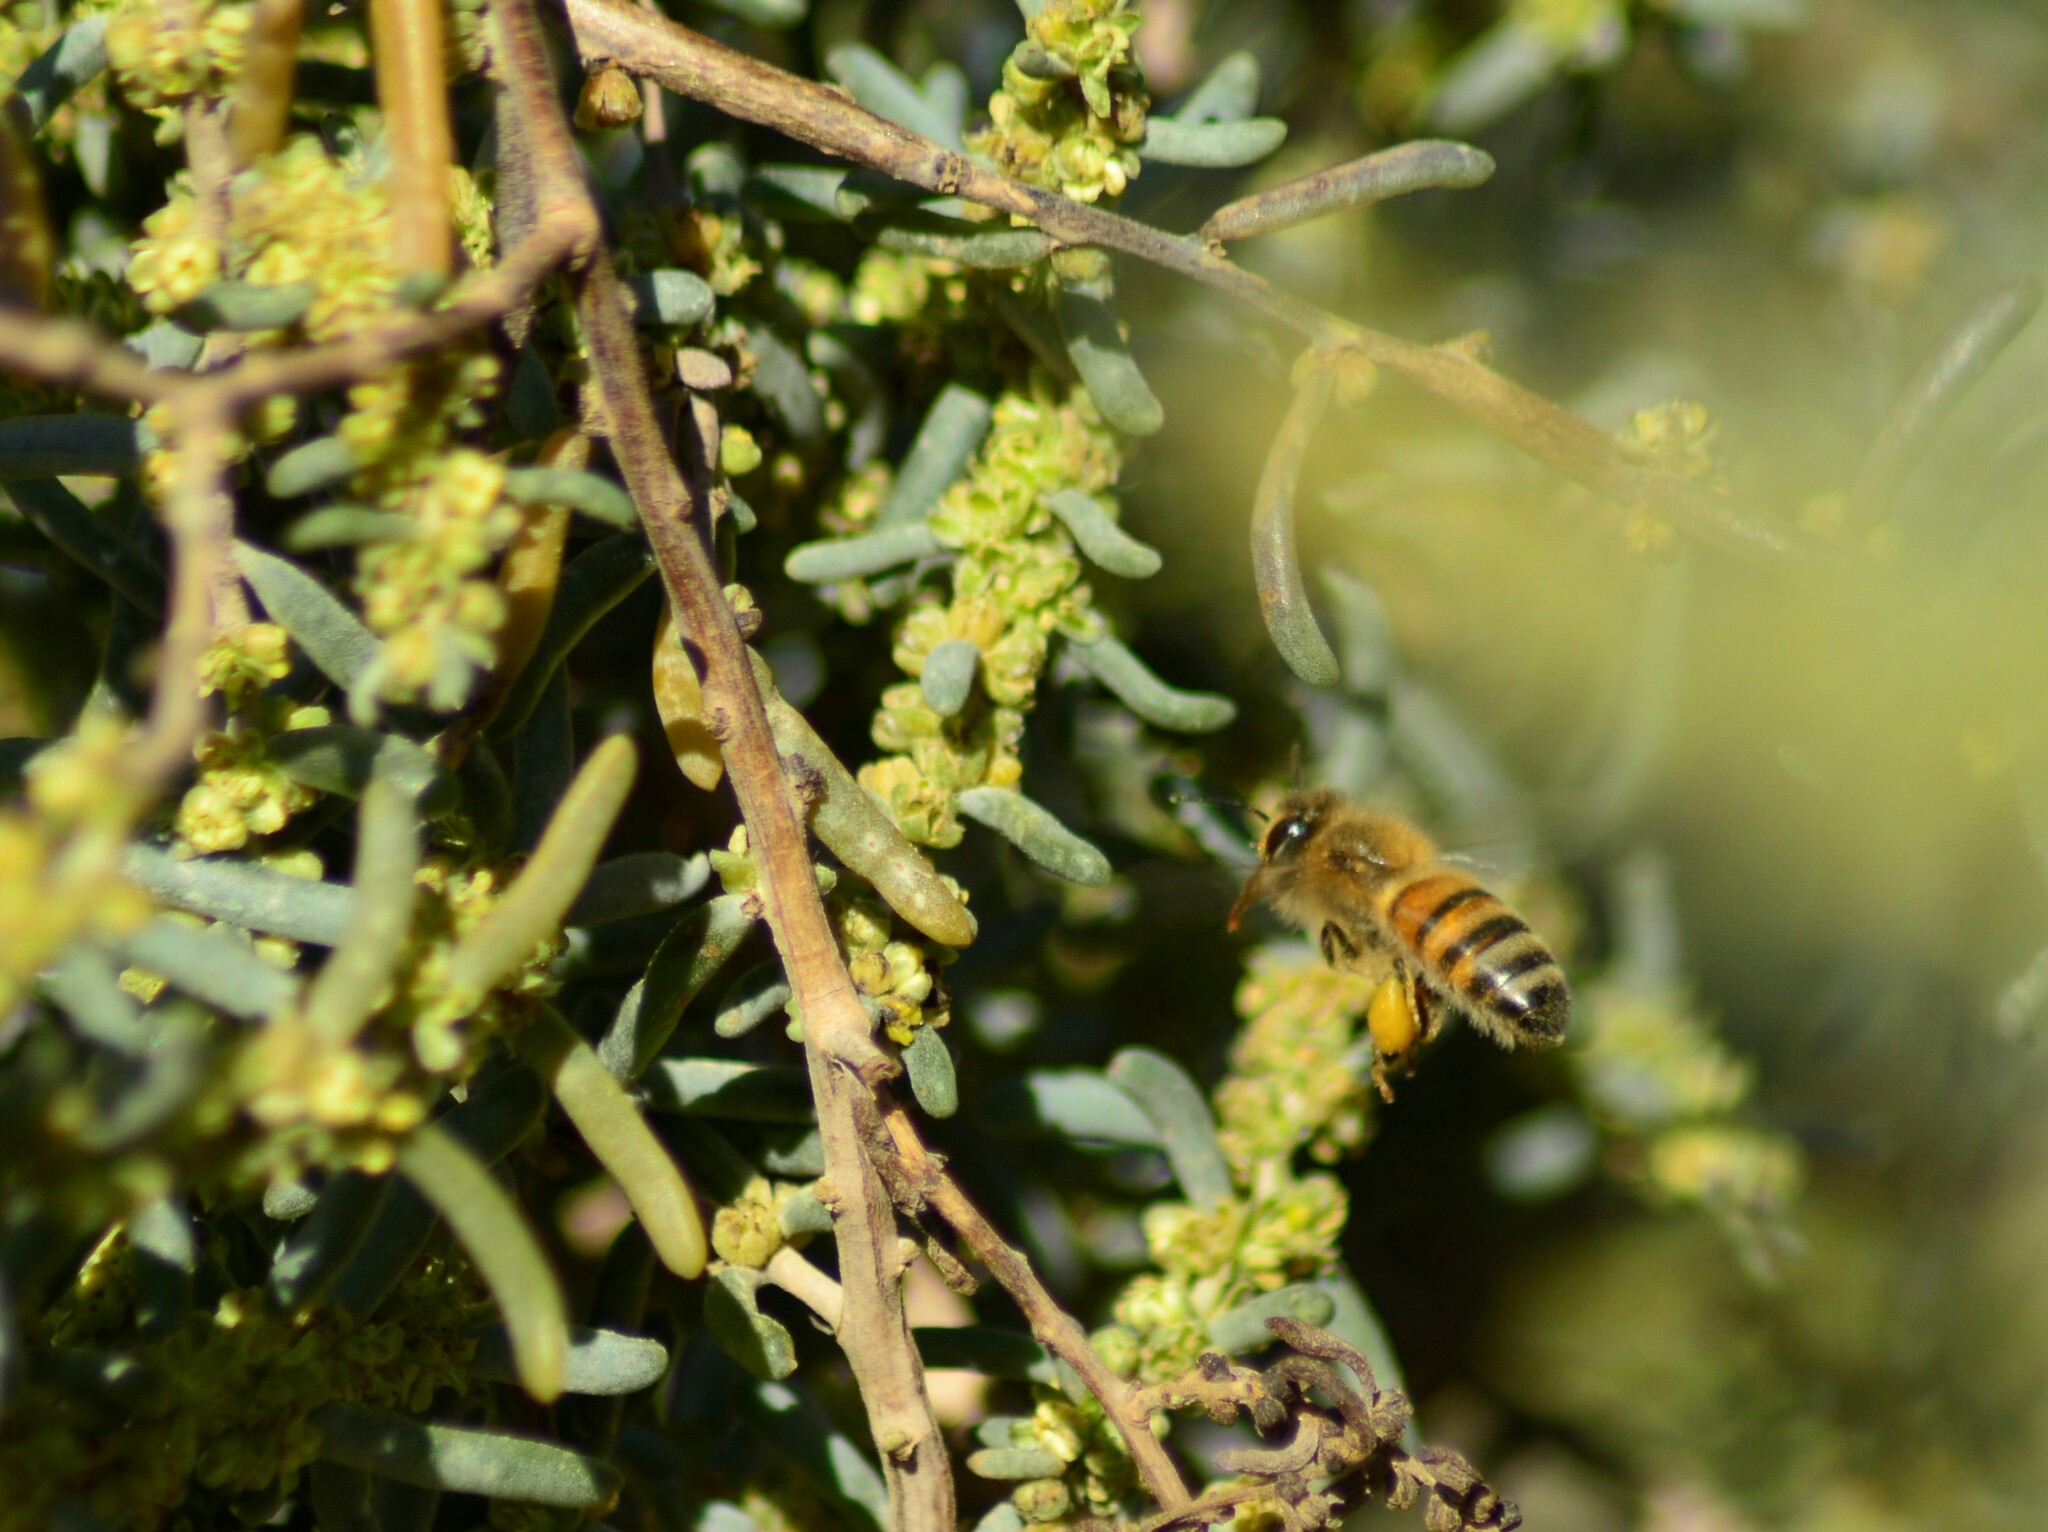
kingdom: Animalia
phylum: Arthropoda
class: Insecta
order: Hymenoptera
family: Apidae
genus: Apis
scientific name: Apis mellifera
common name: Honey bee
